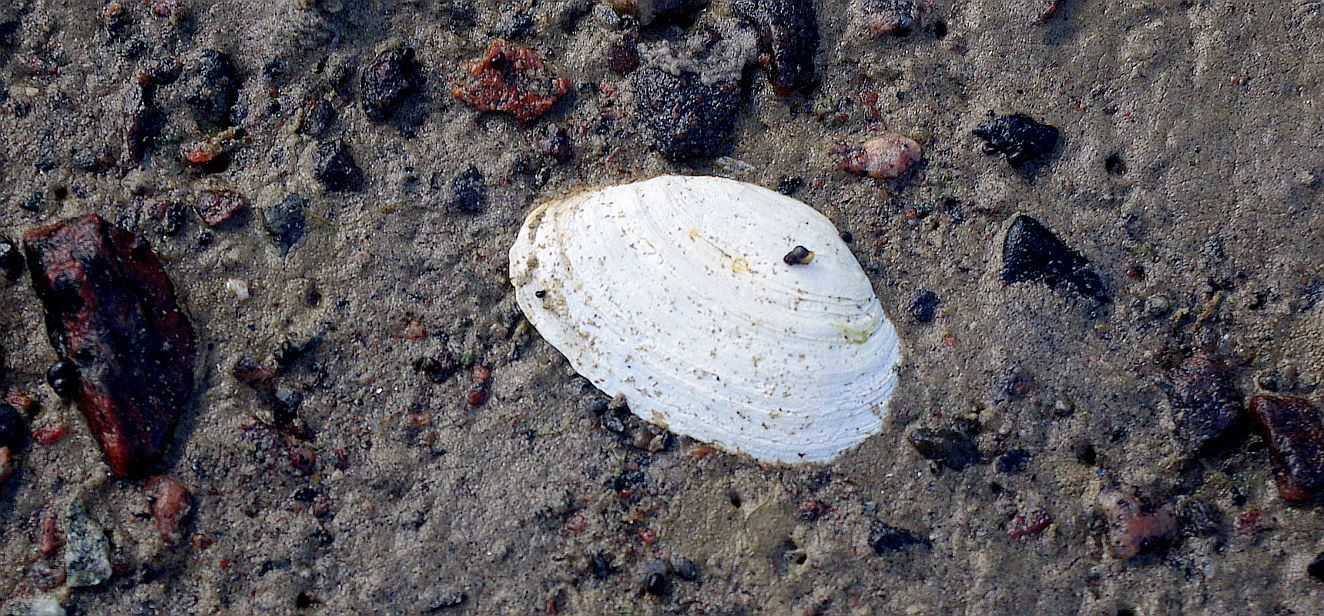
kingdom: Animalia
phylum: Mollusca
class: Bivalvia
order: Myida
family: Myidae
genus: Mya
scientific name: Mya arenaria
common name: Soft-shelled clam
